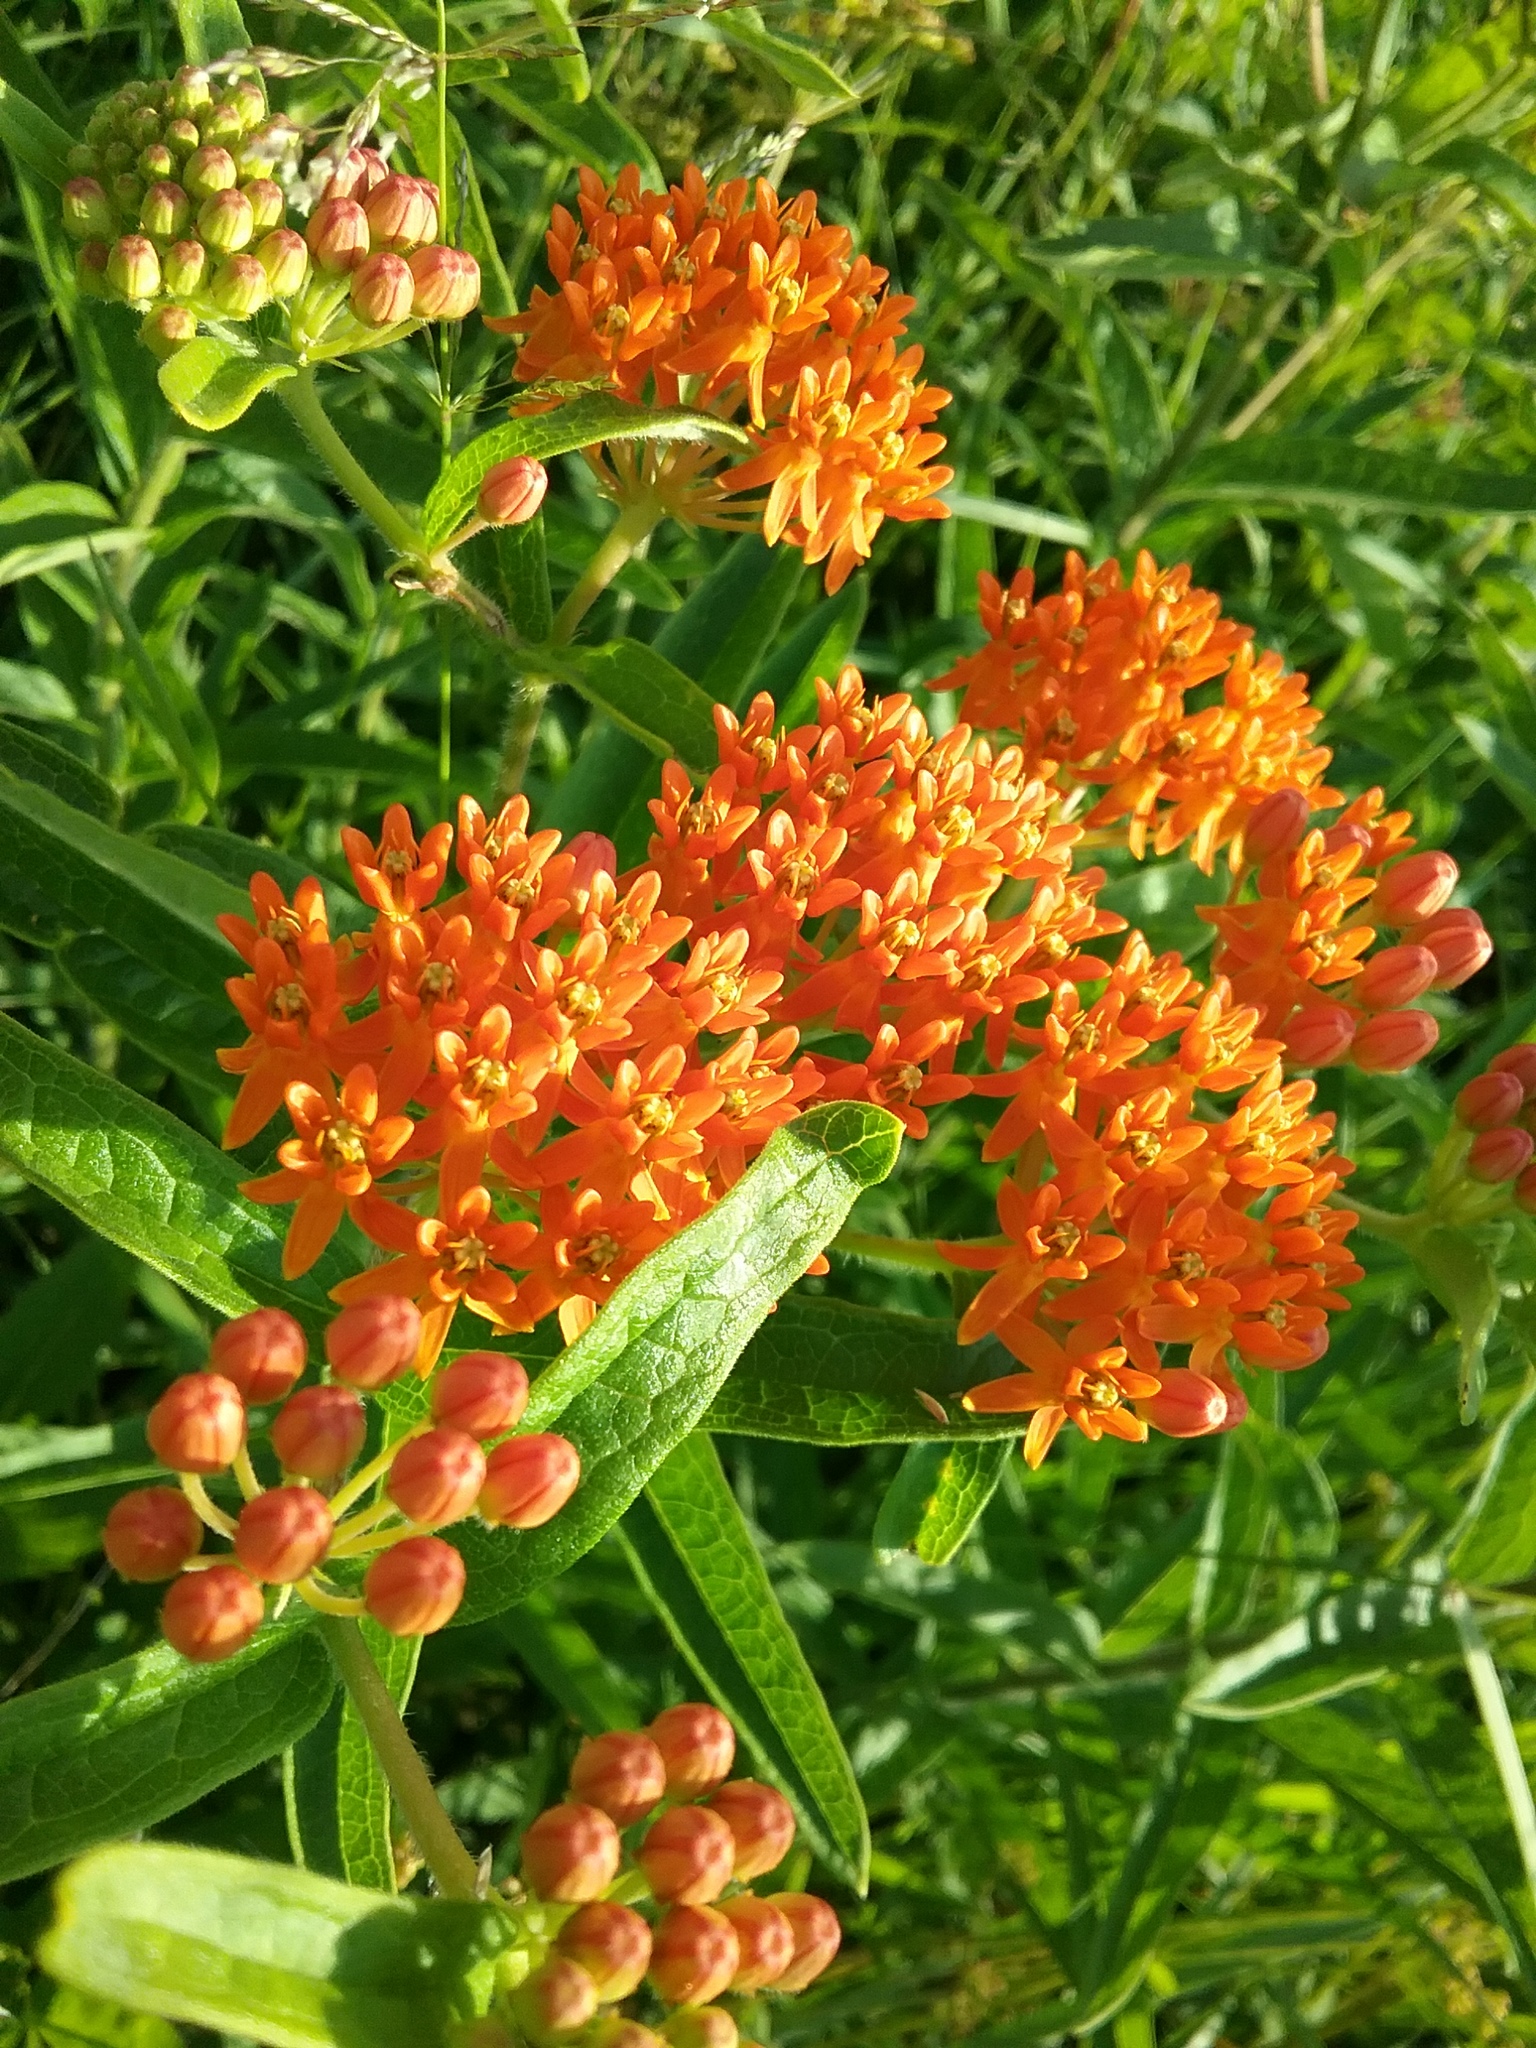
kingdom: Plantae
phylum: Tracheophyta
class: Magnoliopsida
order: Gentianales
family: Apocynaceae
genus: Asclepias
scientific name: Asclepias tuberosa
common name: Butterfly milkweed
